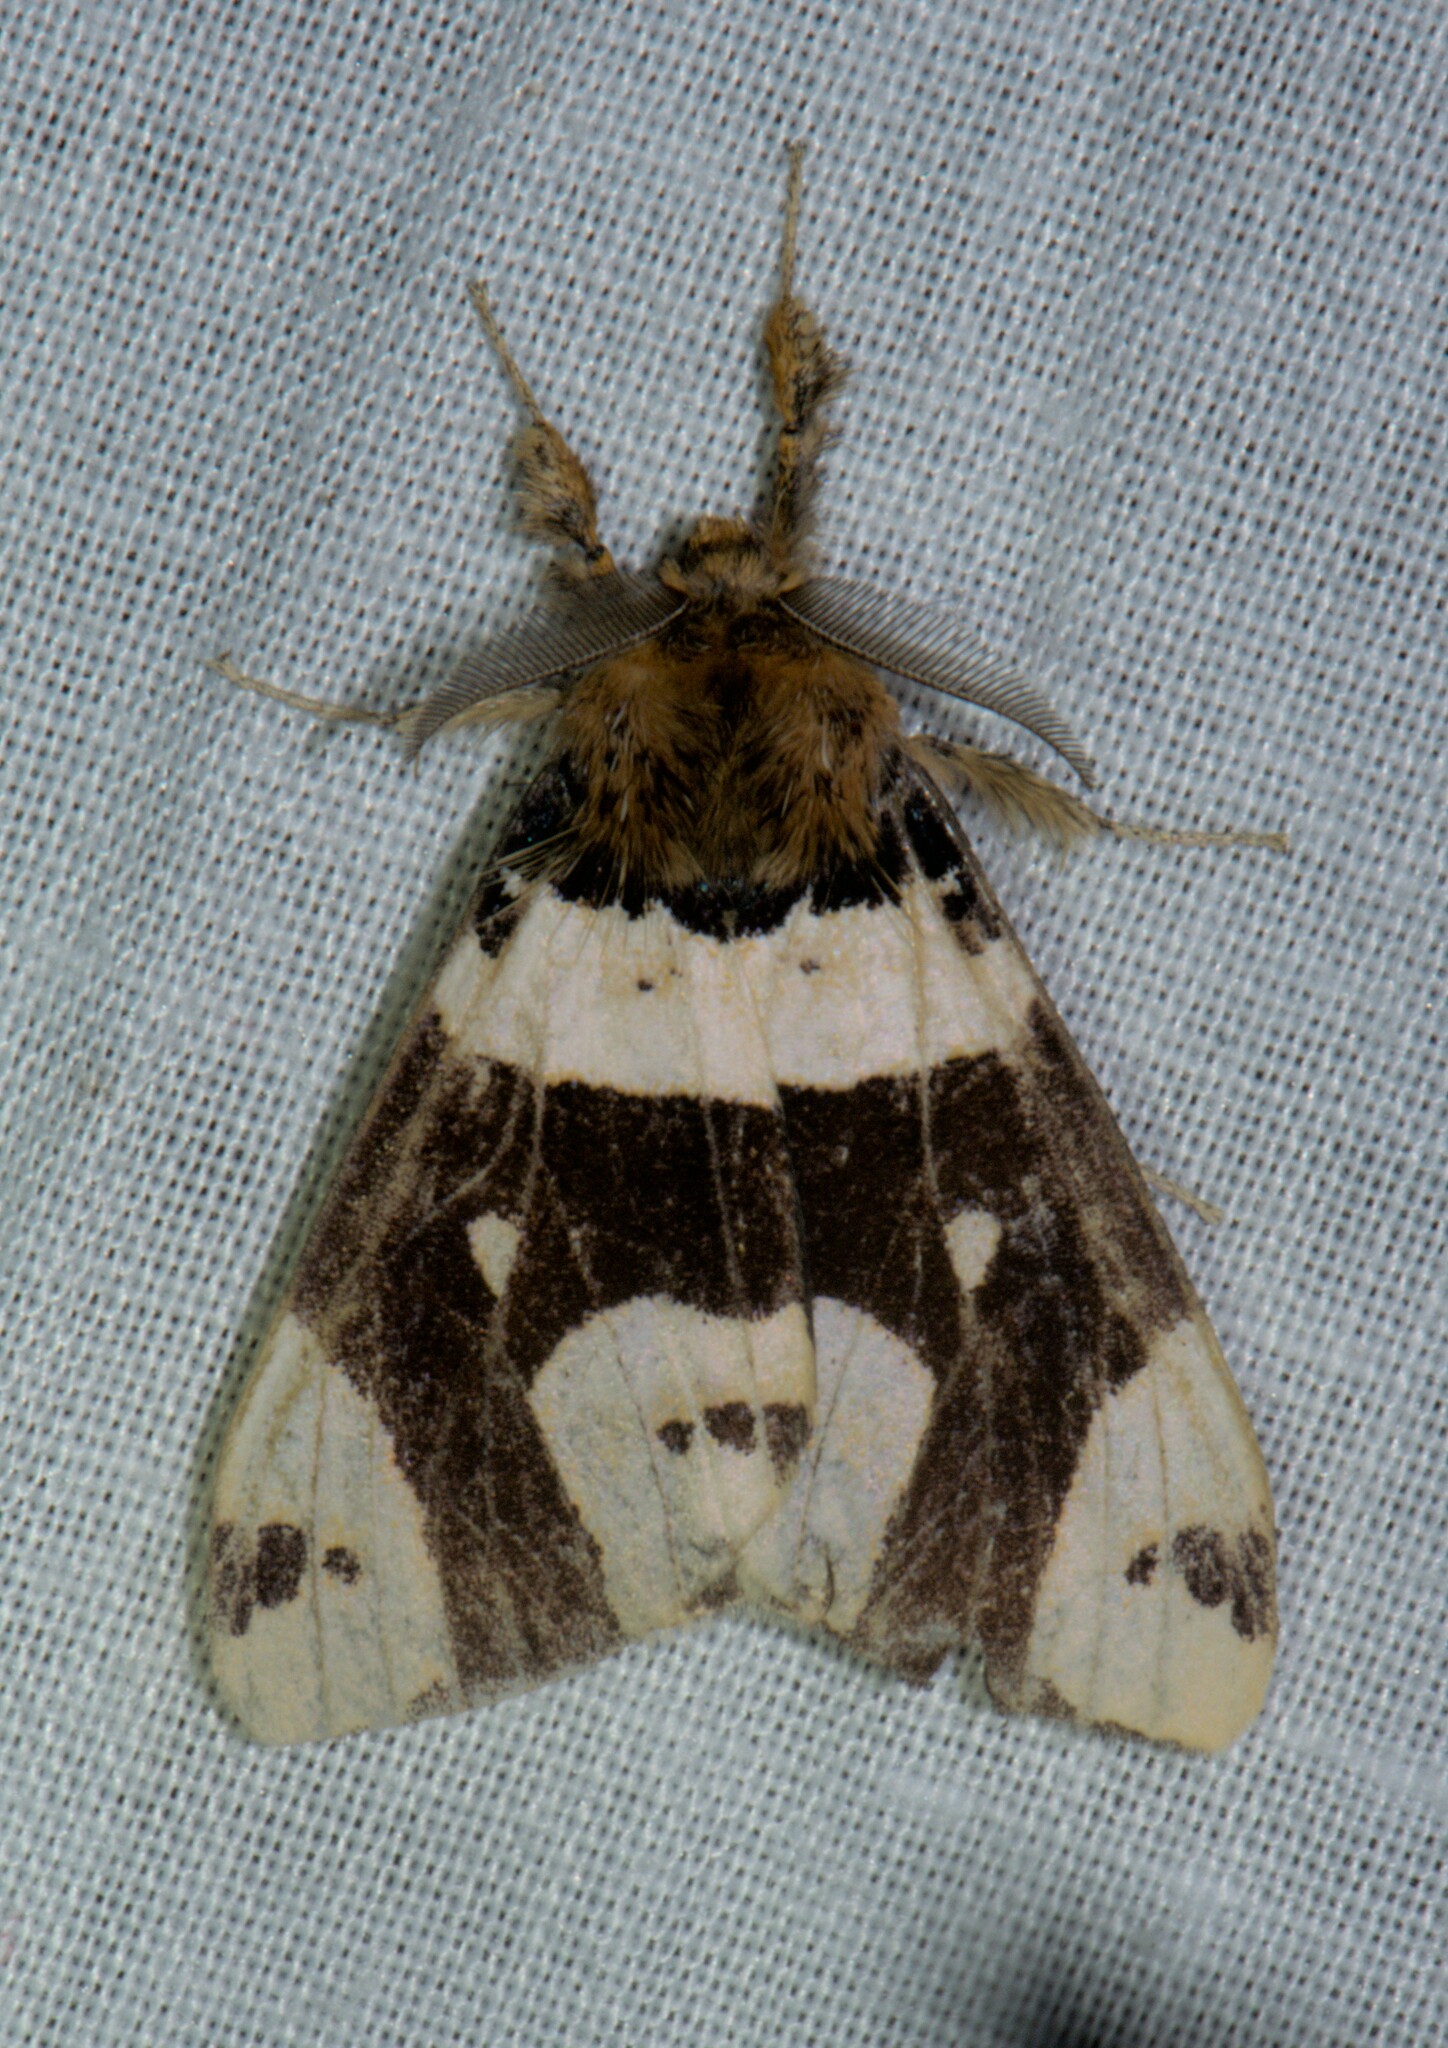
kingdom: Animalia
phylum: Arthropoda
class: Insecta
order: Lepidoptera
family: Erebidae
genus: Pida
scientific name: Pida
